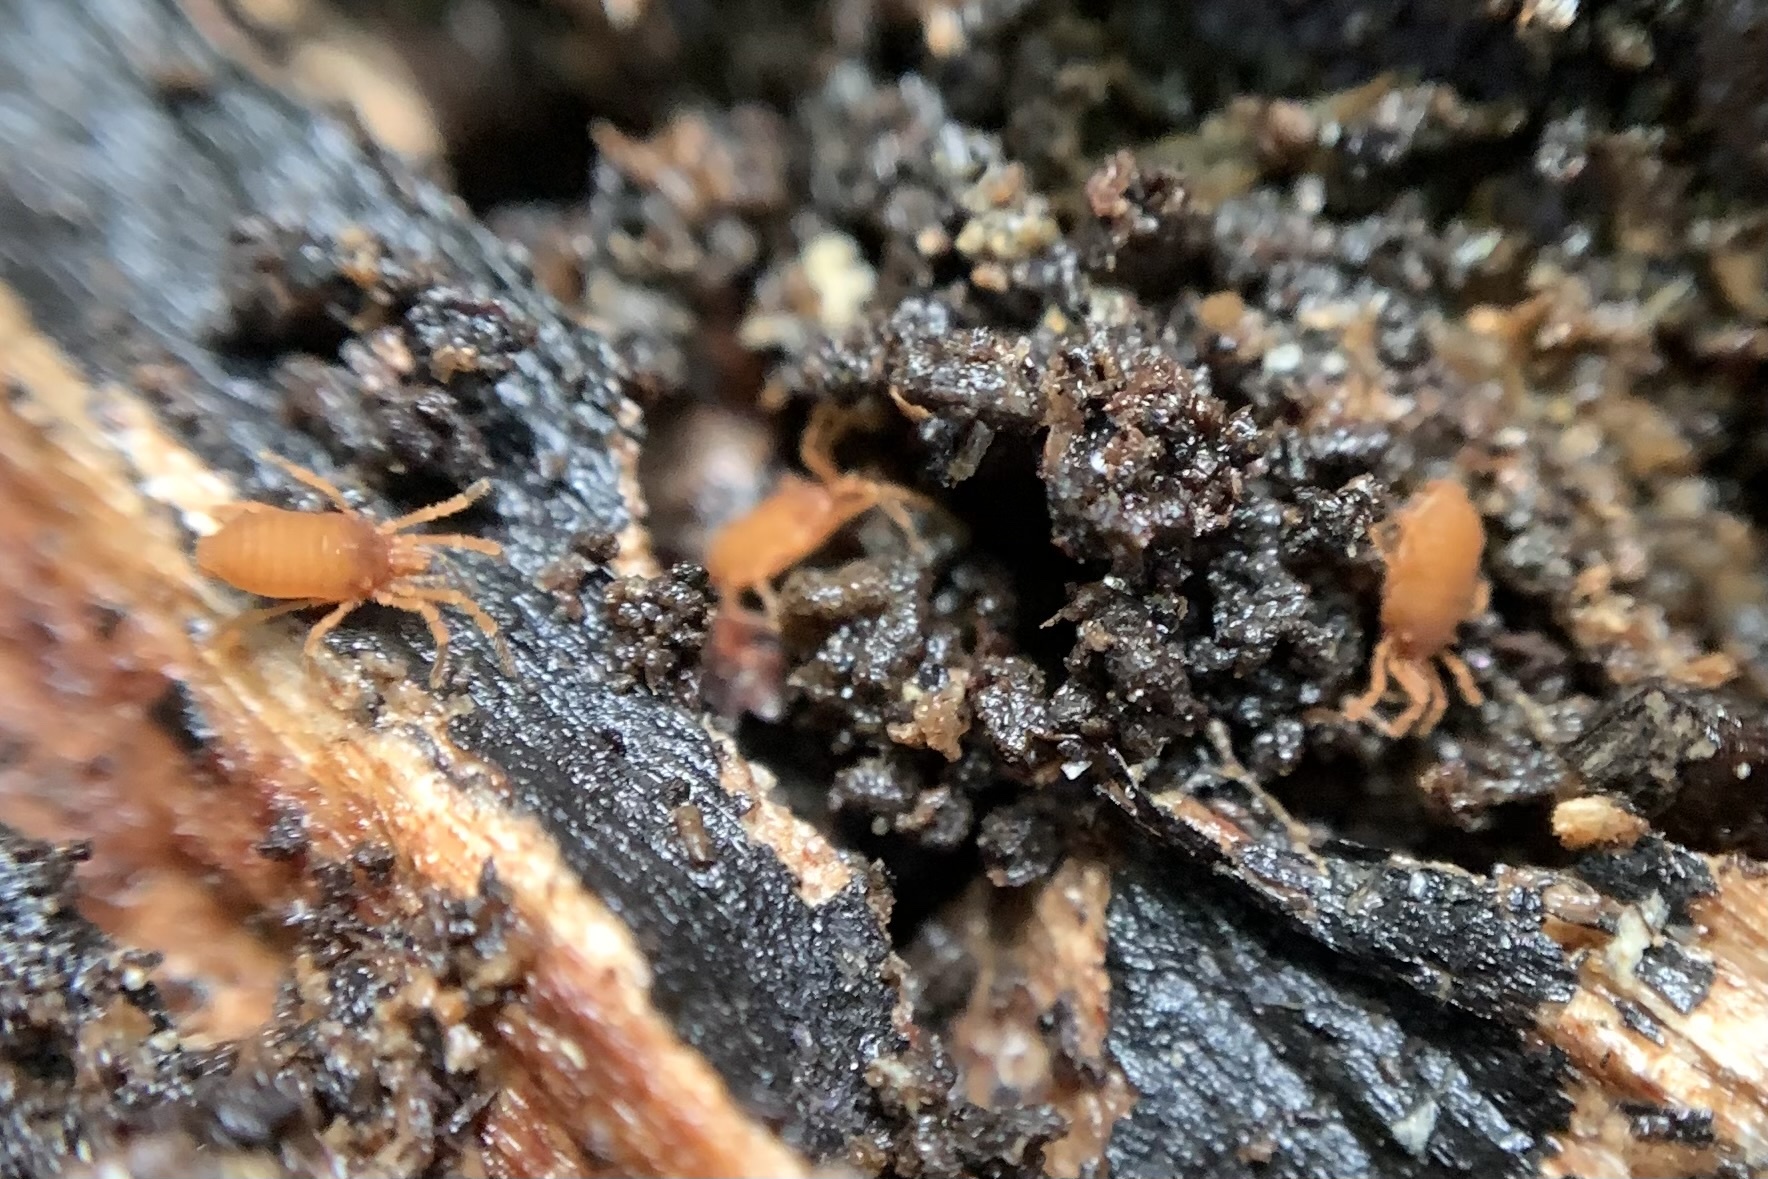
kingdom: Animalia
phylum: Arthropoda
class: Arachnida
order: Opiliones
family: Sironidae
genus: Siro
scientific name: Siro rubens
